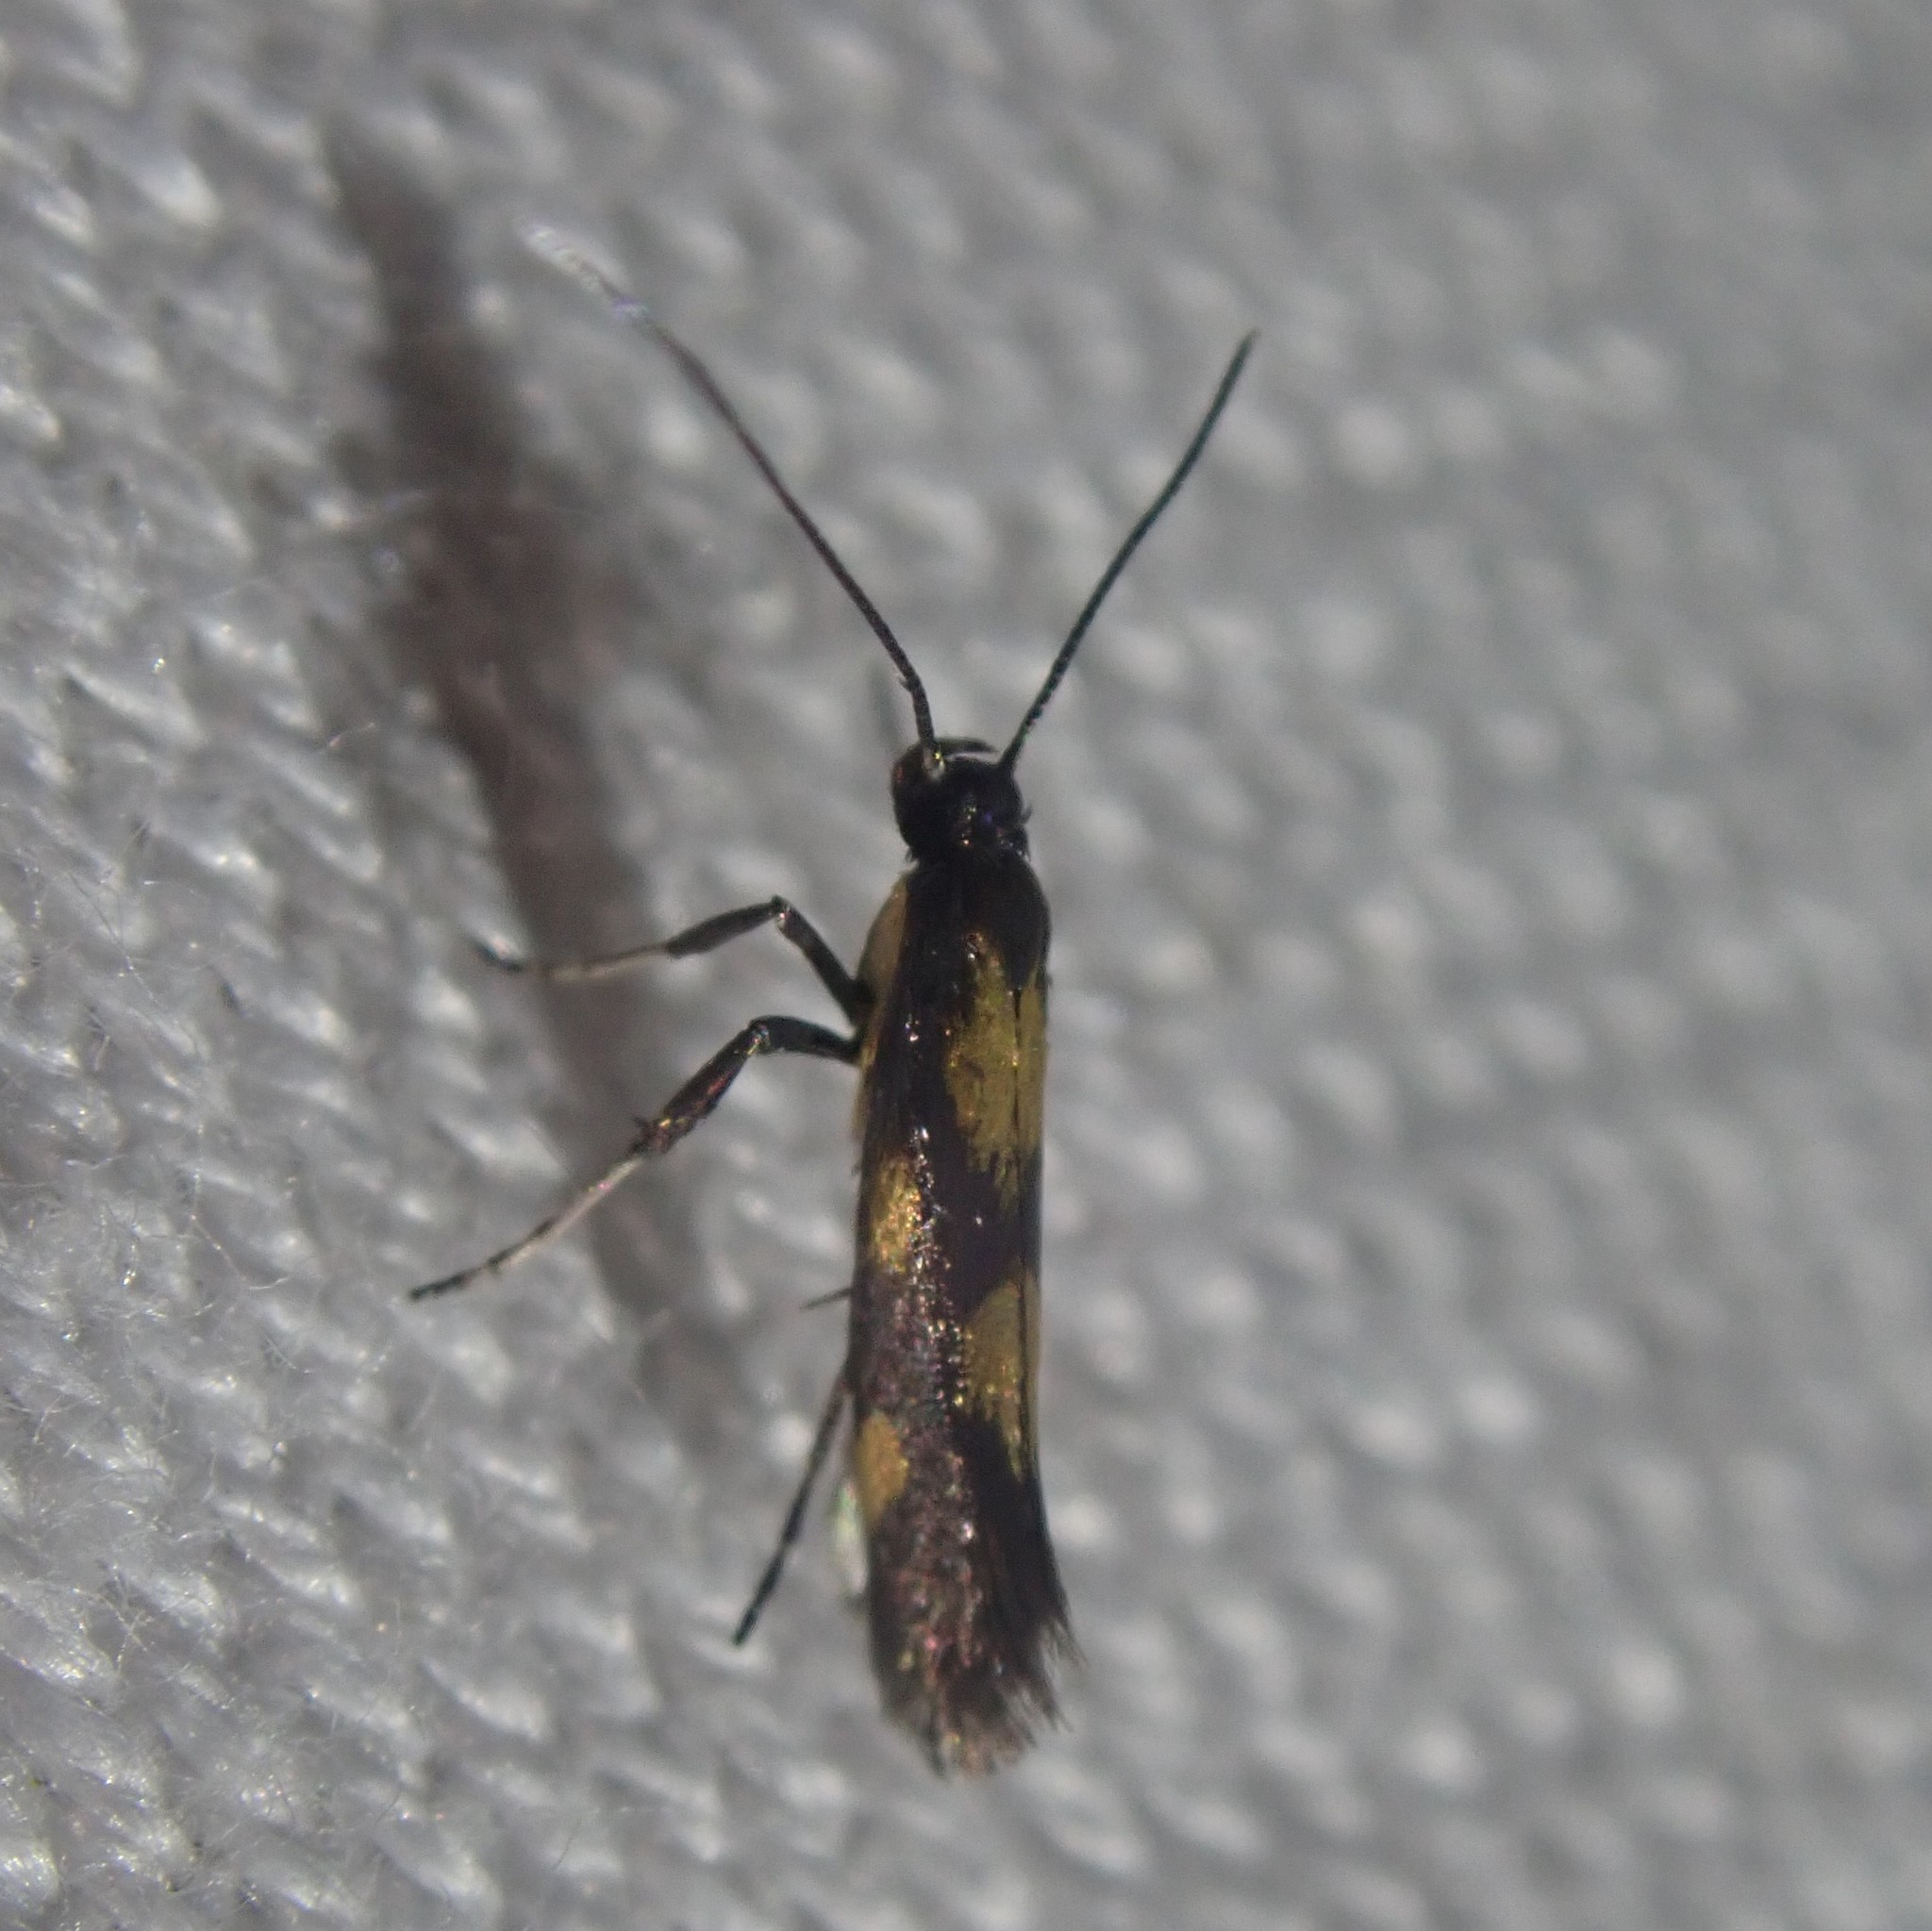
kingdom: Animalia
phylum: Arthropoda
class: Insecta
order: Lepidoptera
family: Gracillariidae
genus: Euspilapteryx
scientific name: Euspilapteryx auroguttella
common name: Gold-dot slender
